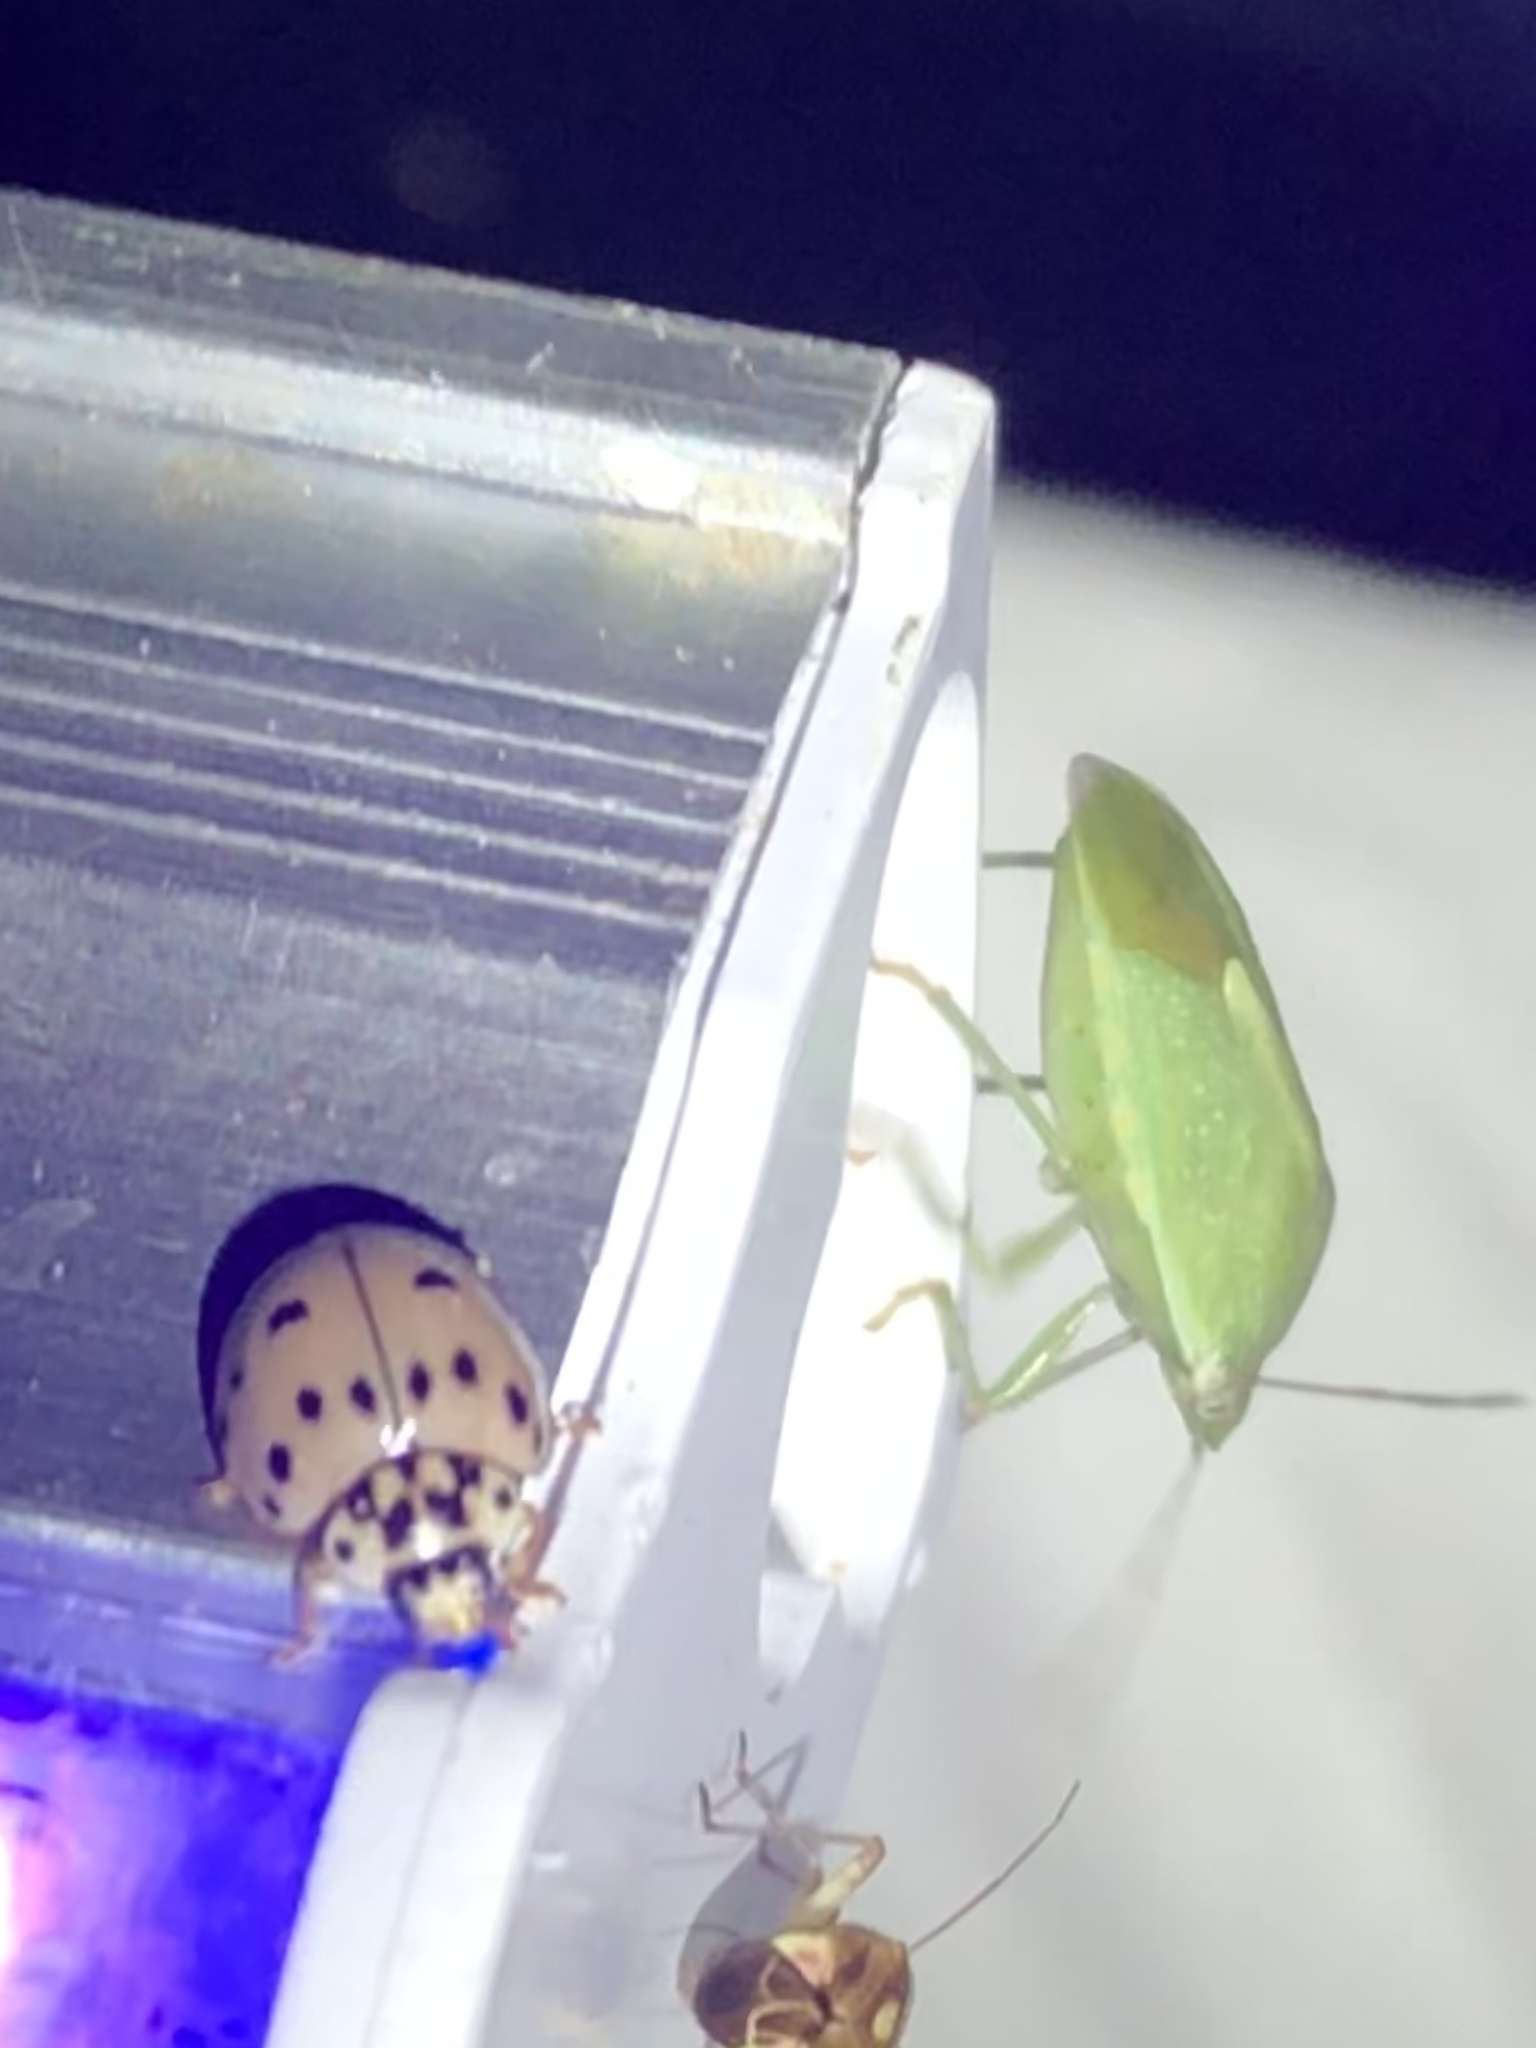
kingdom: Animalia
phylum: Arthropoda
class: Insecta
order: Coleoptera
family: Coccinellidae
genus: Olla
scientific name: Olla v-nigrum
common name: Ashy gray lady beetle
